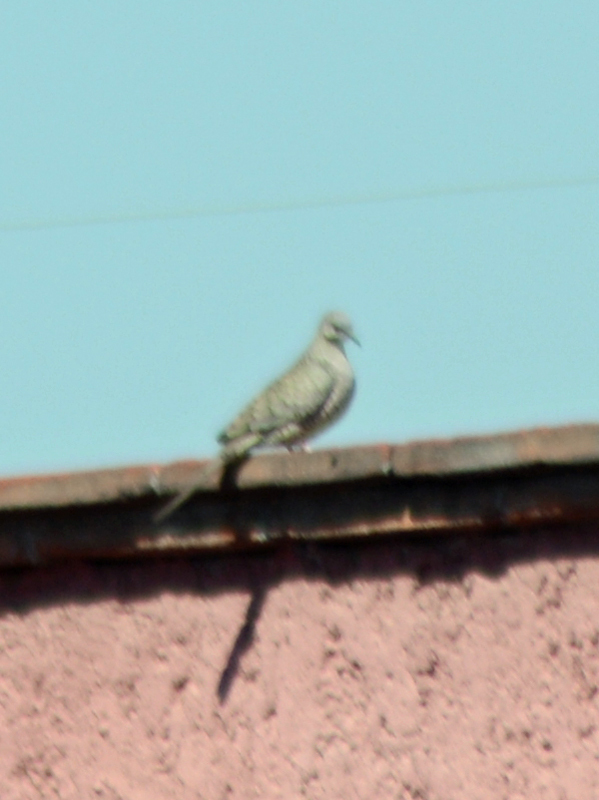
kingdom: Animalia
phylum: Chordata
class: Aves
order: Columbiformes
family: Columbidae
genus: Columbina
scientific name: Columbina inca
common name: Inca dove
